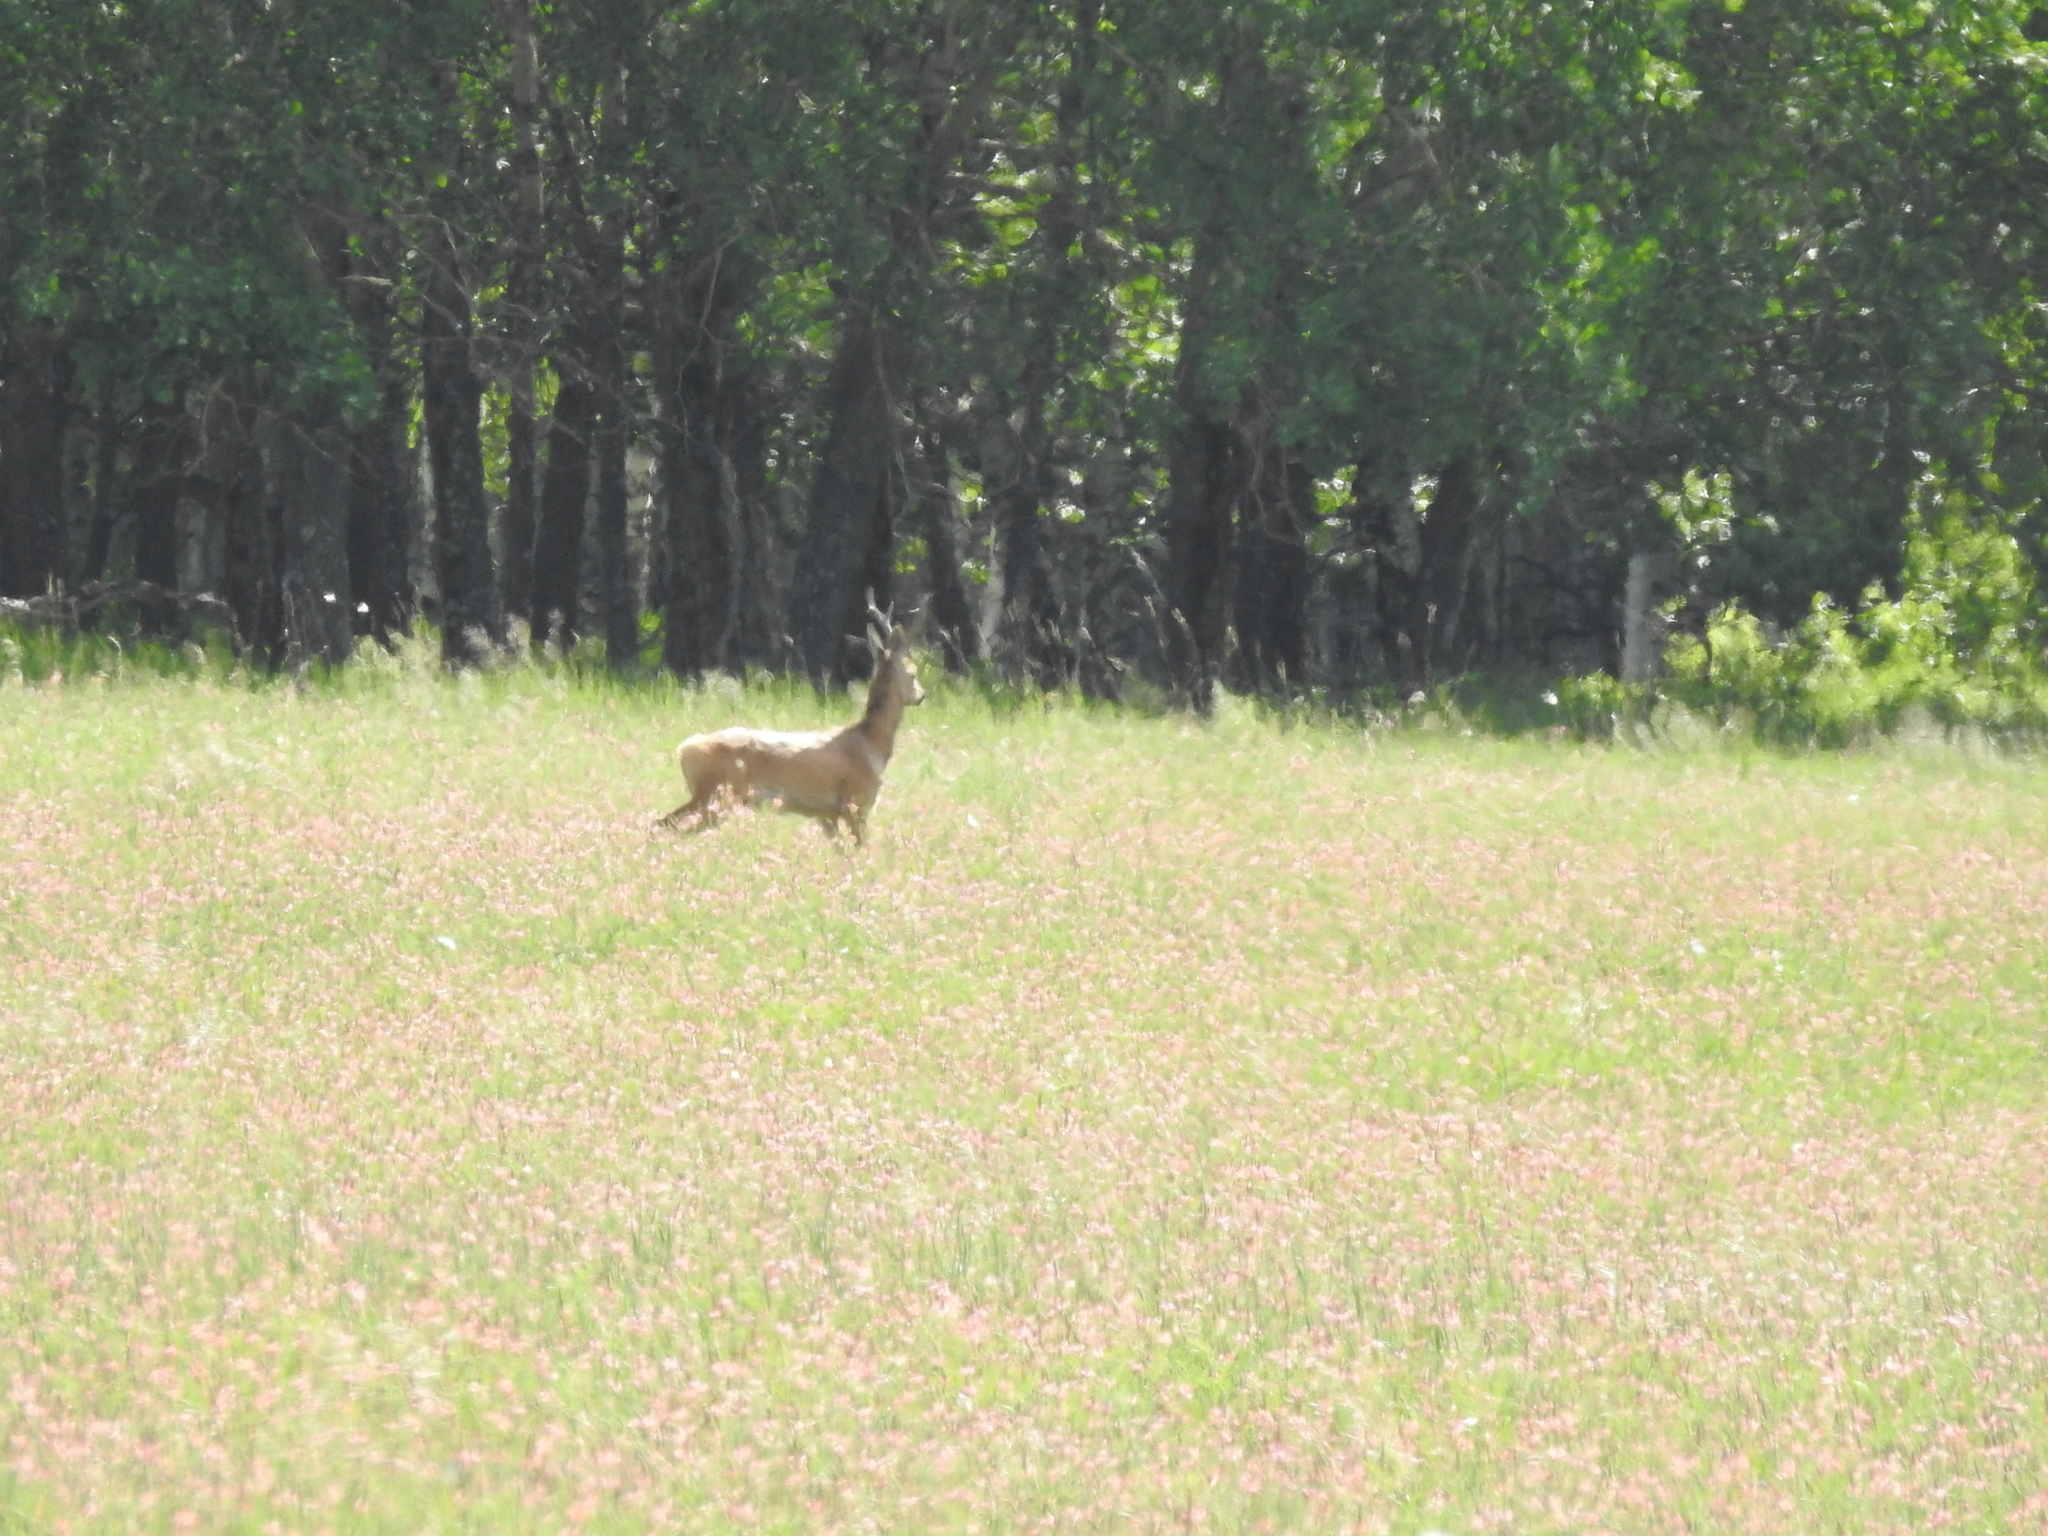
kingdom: Animalia
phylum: Chordata
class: Mammalia
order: Artiodactyla
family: Cervidae
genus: Capreolus
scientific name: Capreolus pygargus
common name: Siberian roe
